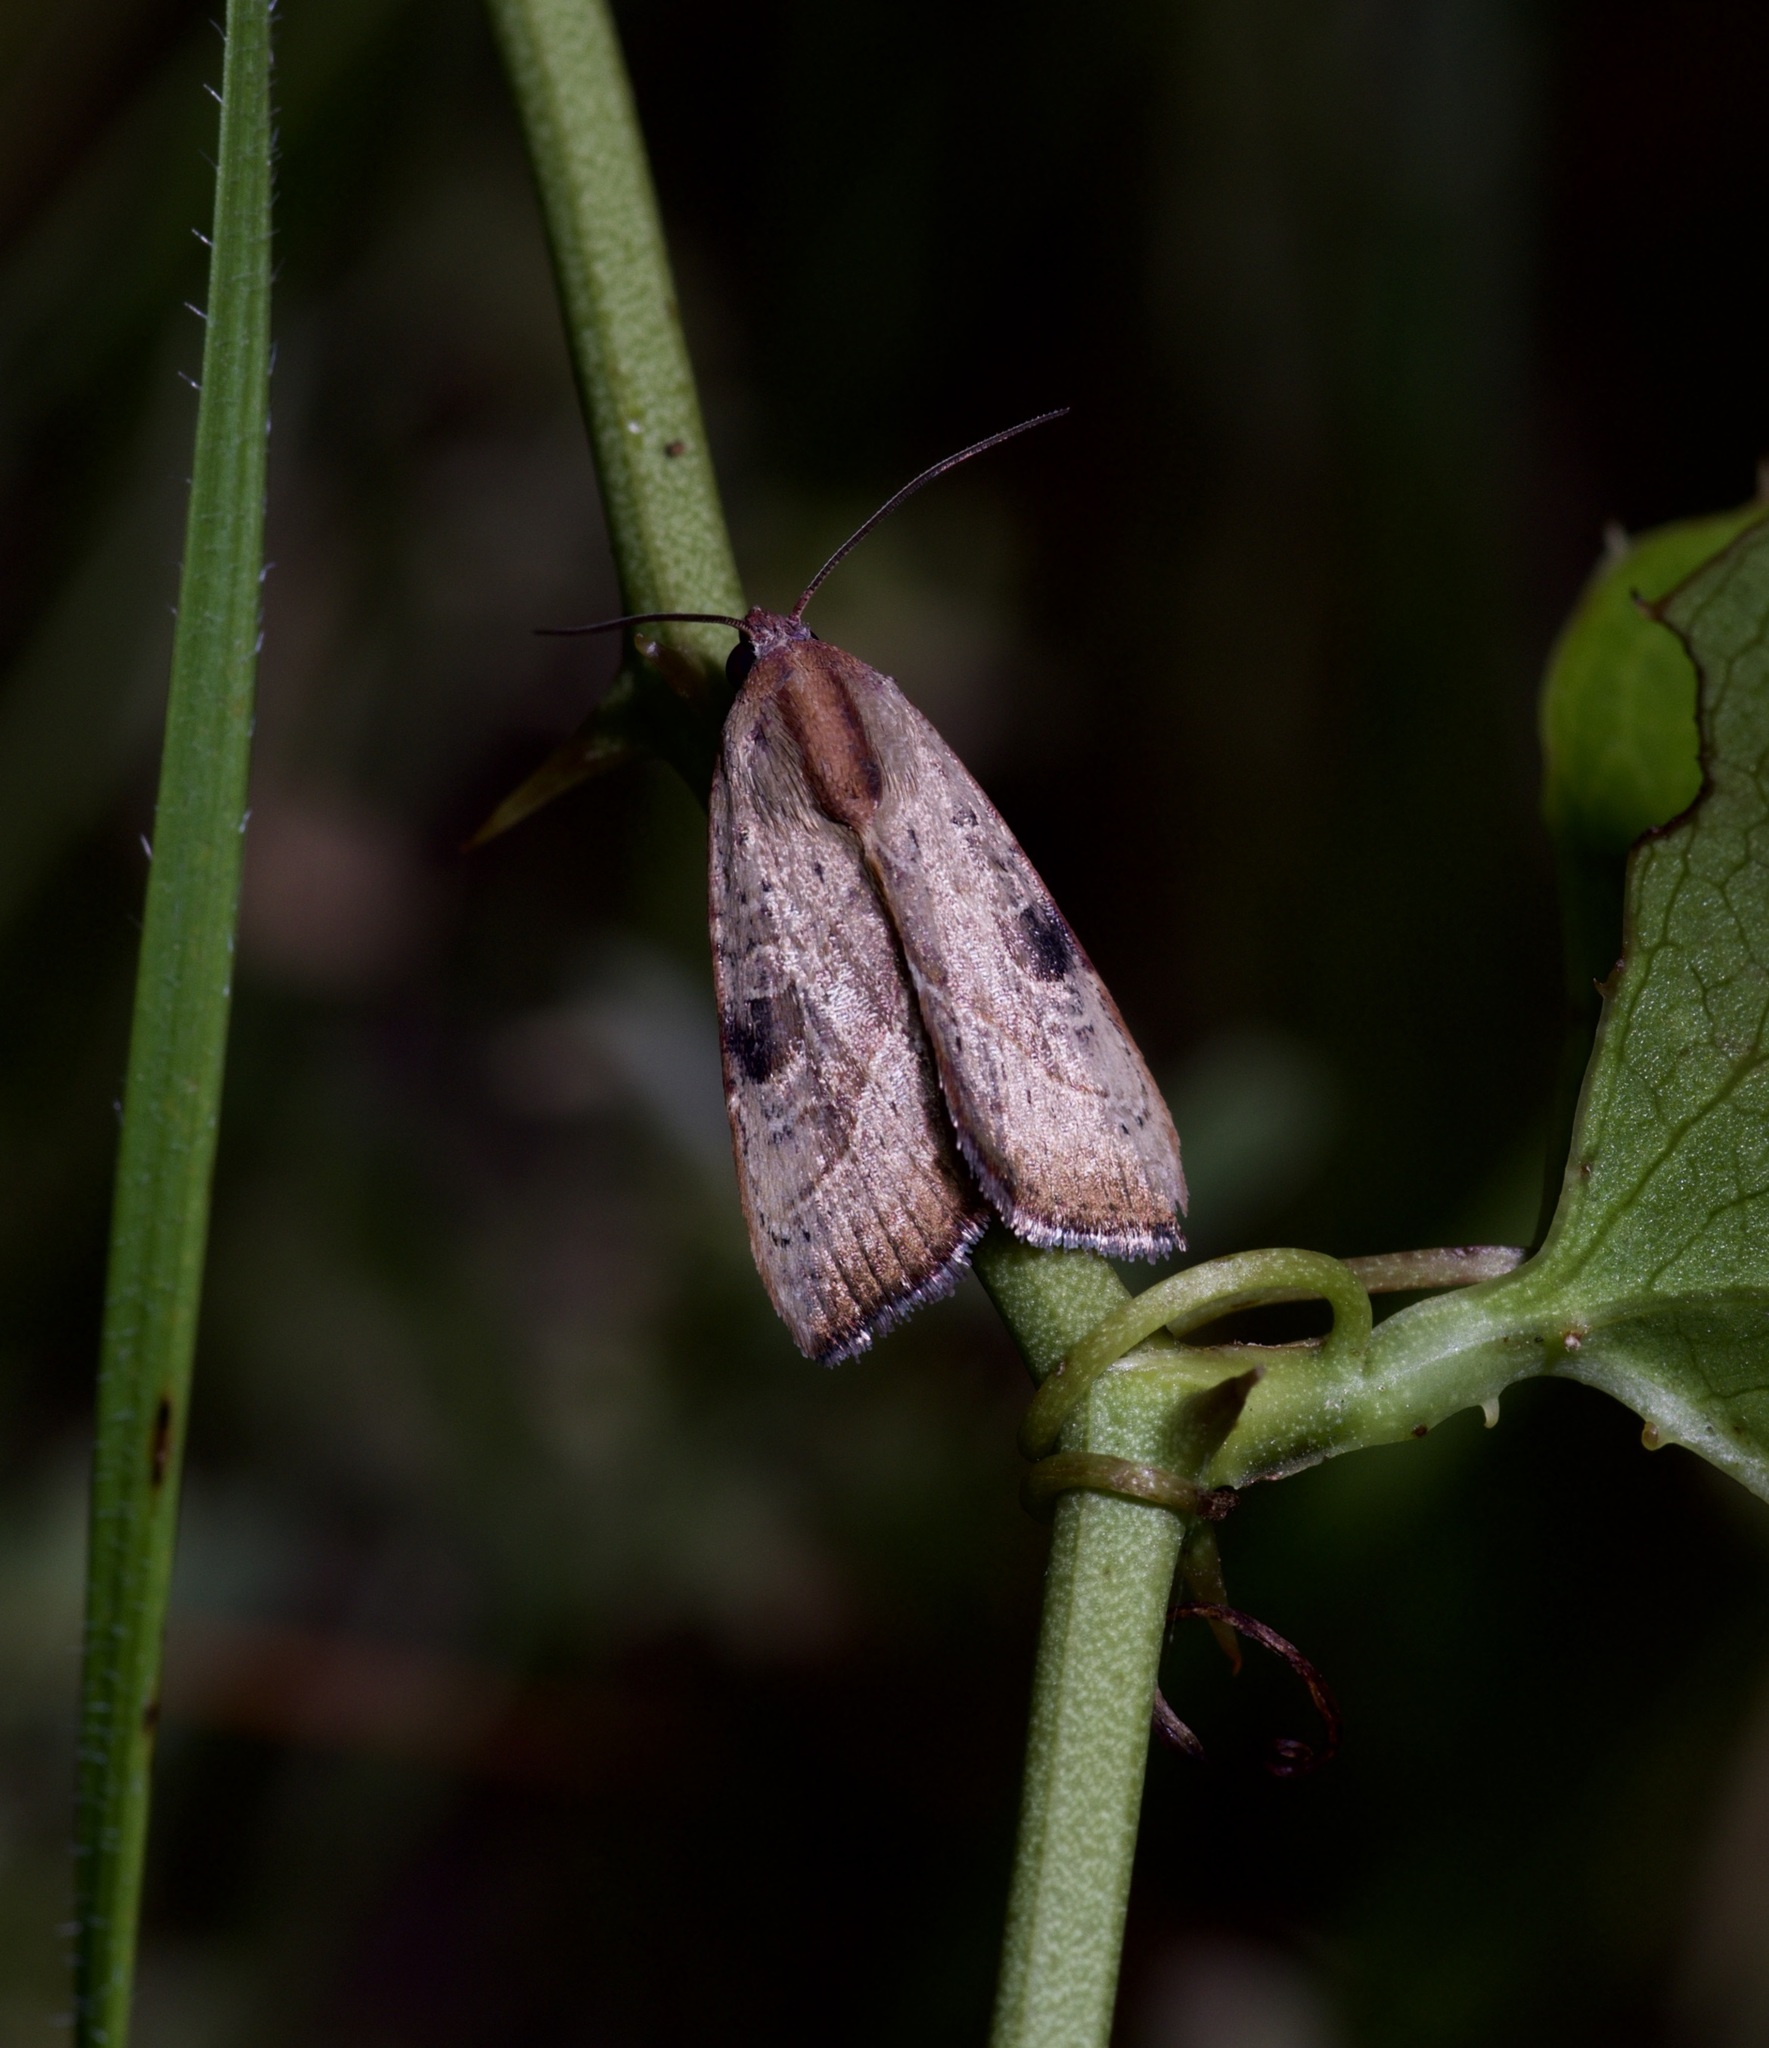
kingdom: Animalia
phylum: Arthropoda
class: Insecta
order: Lepidoptera
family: Noctuidae
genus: Galgula
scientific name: Galgula partita
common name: Wedgeling
